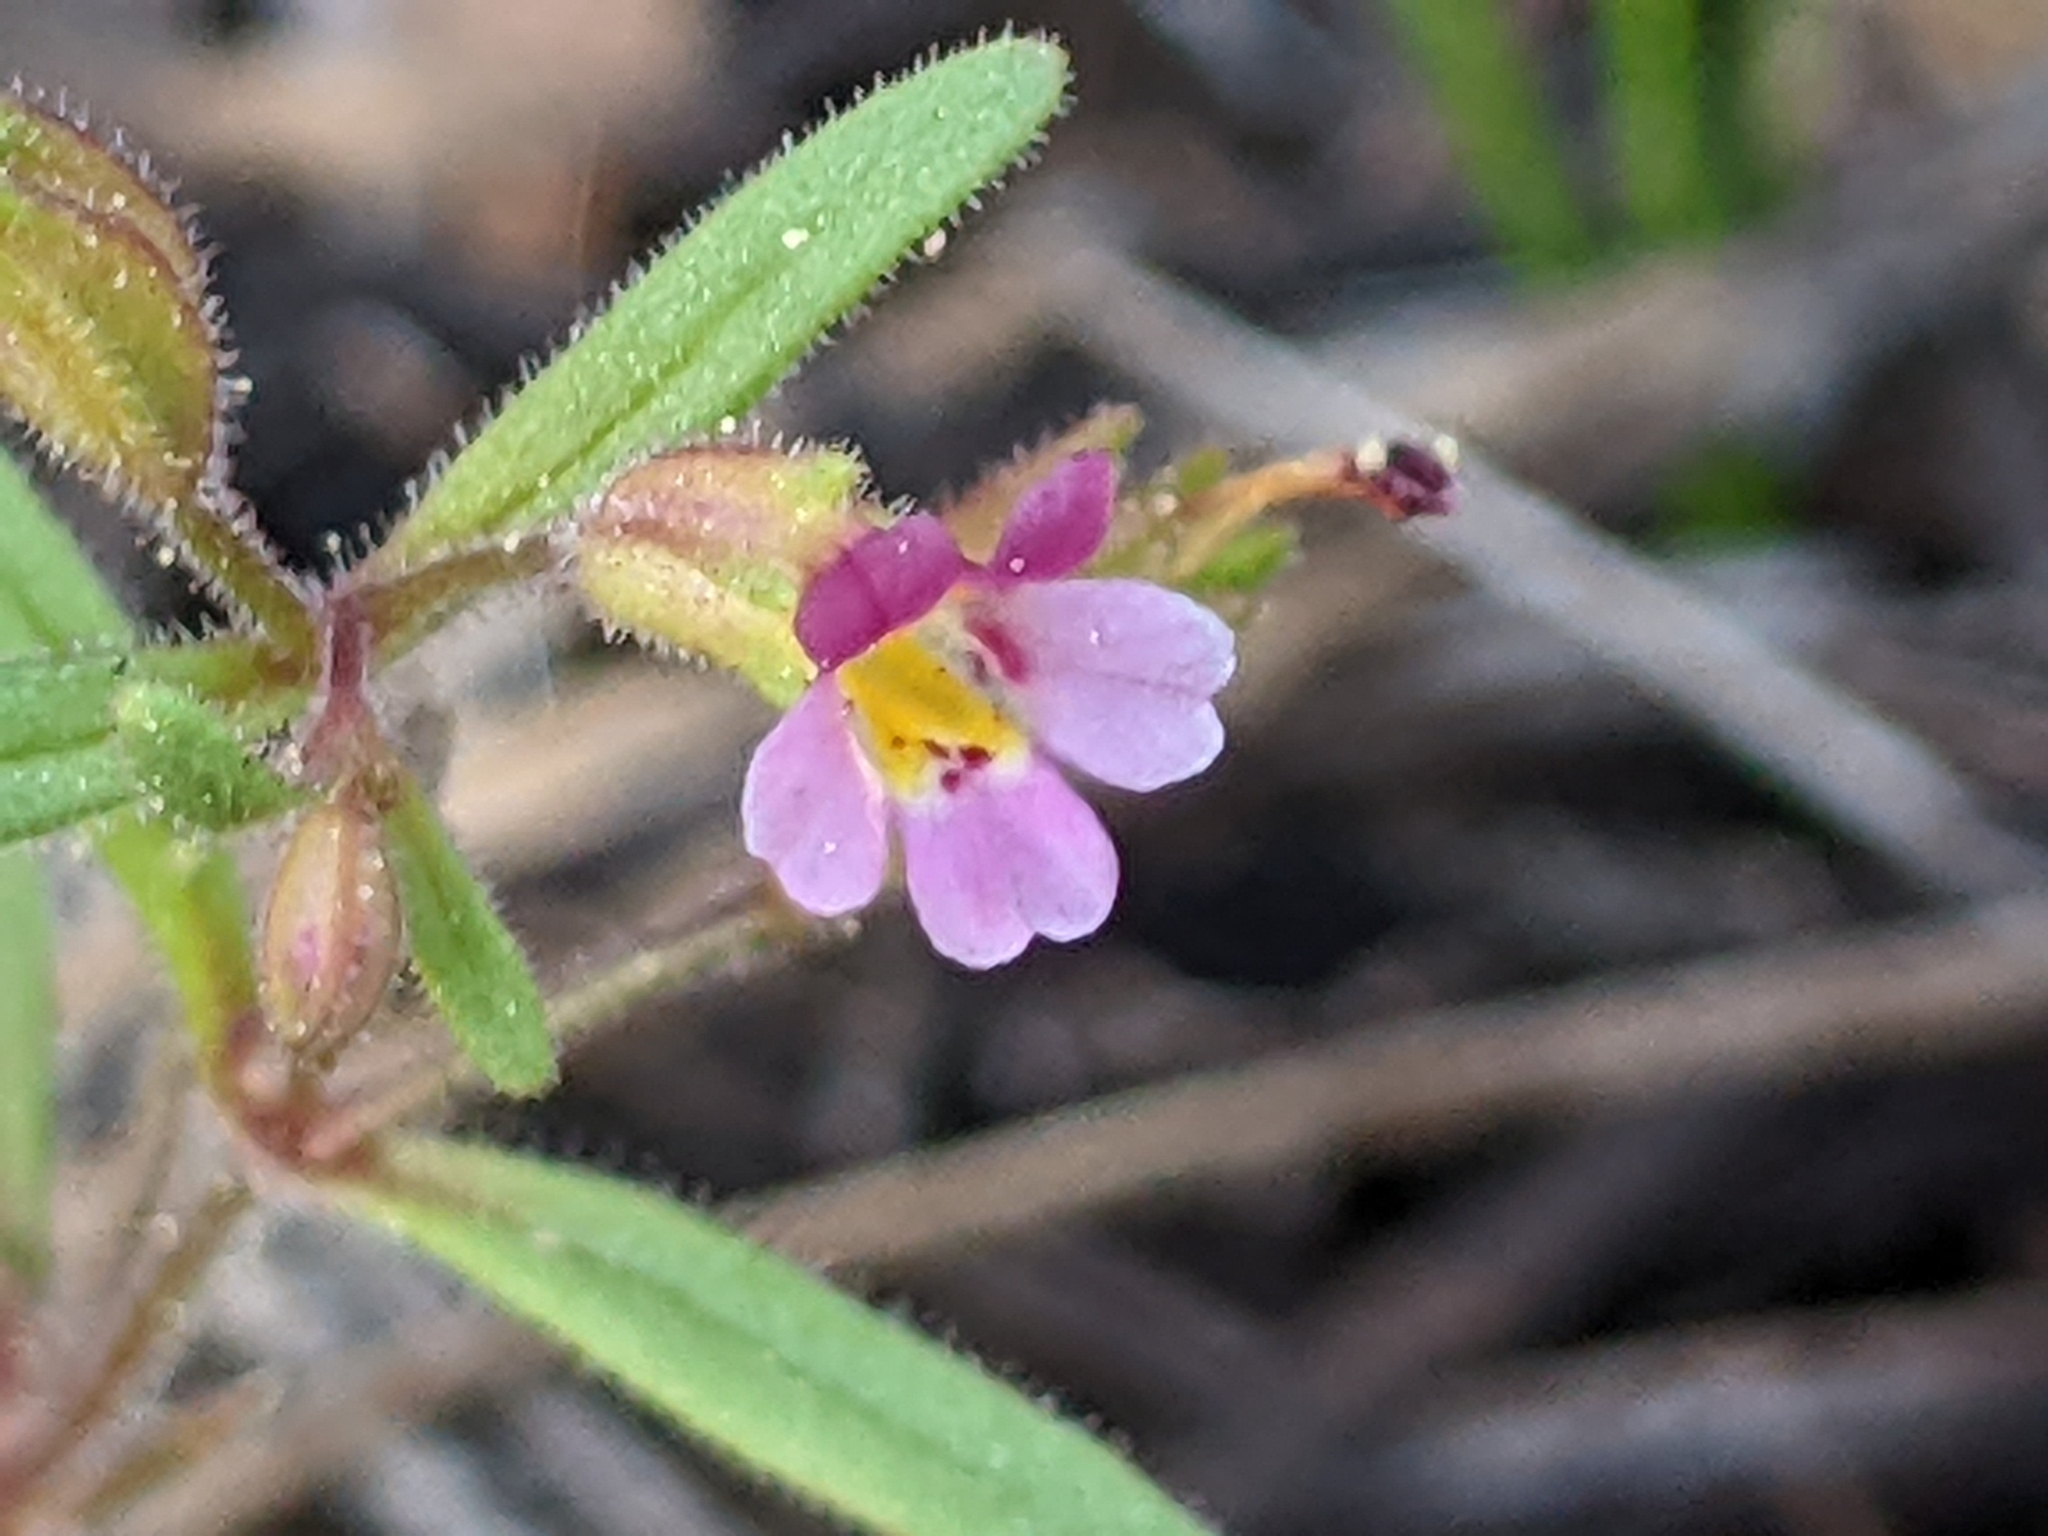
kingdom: Plantae
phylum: Tracheophyta
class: Magnoliopsida
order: Lamiales
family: Phrymaceae
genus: Erythranthe
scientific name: Erythranthe breweri
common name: Brewer's monkeyflower
